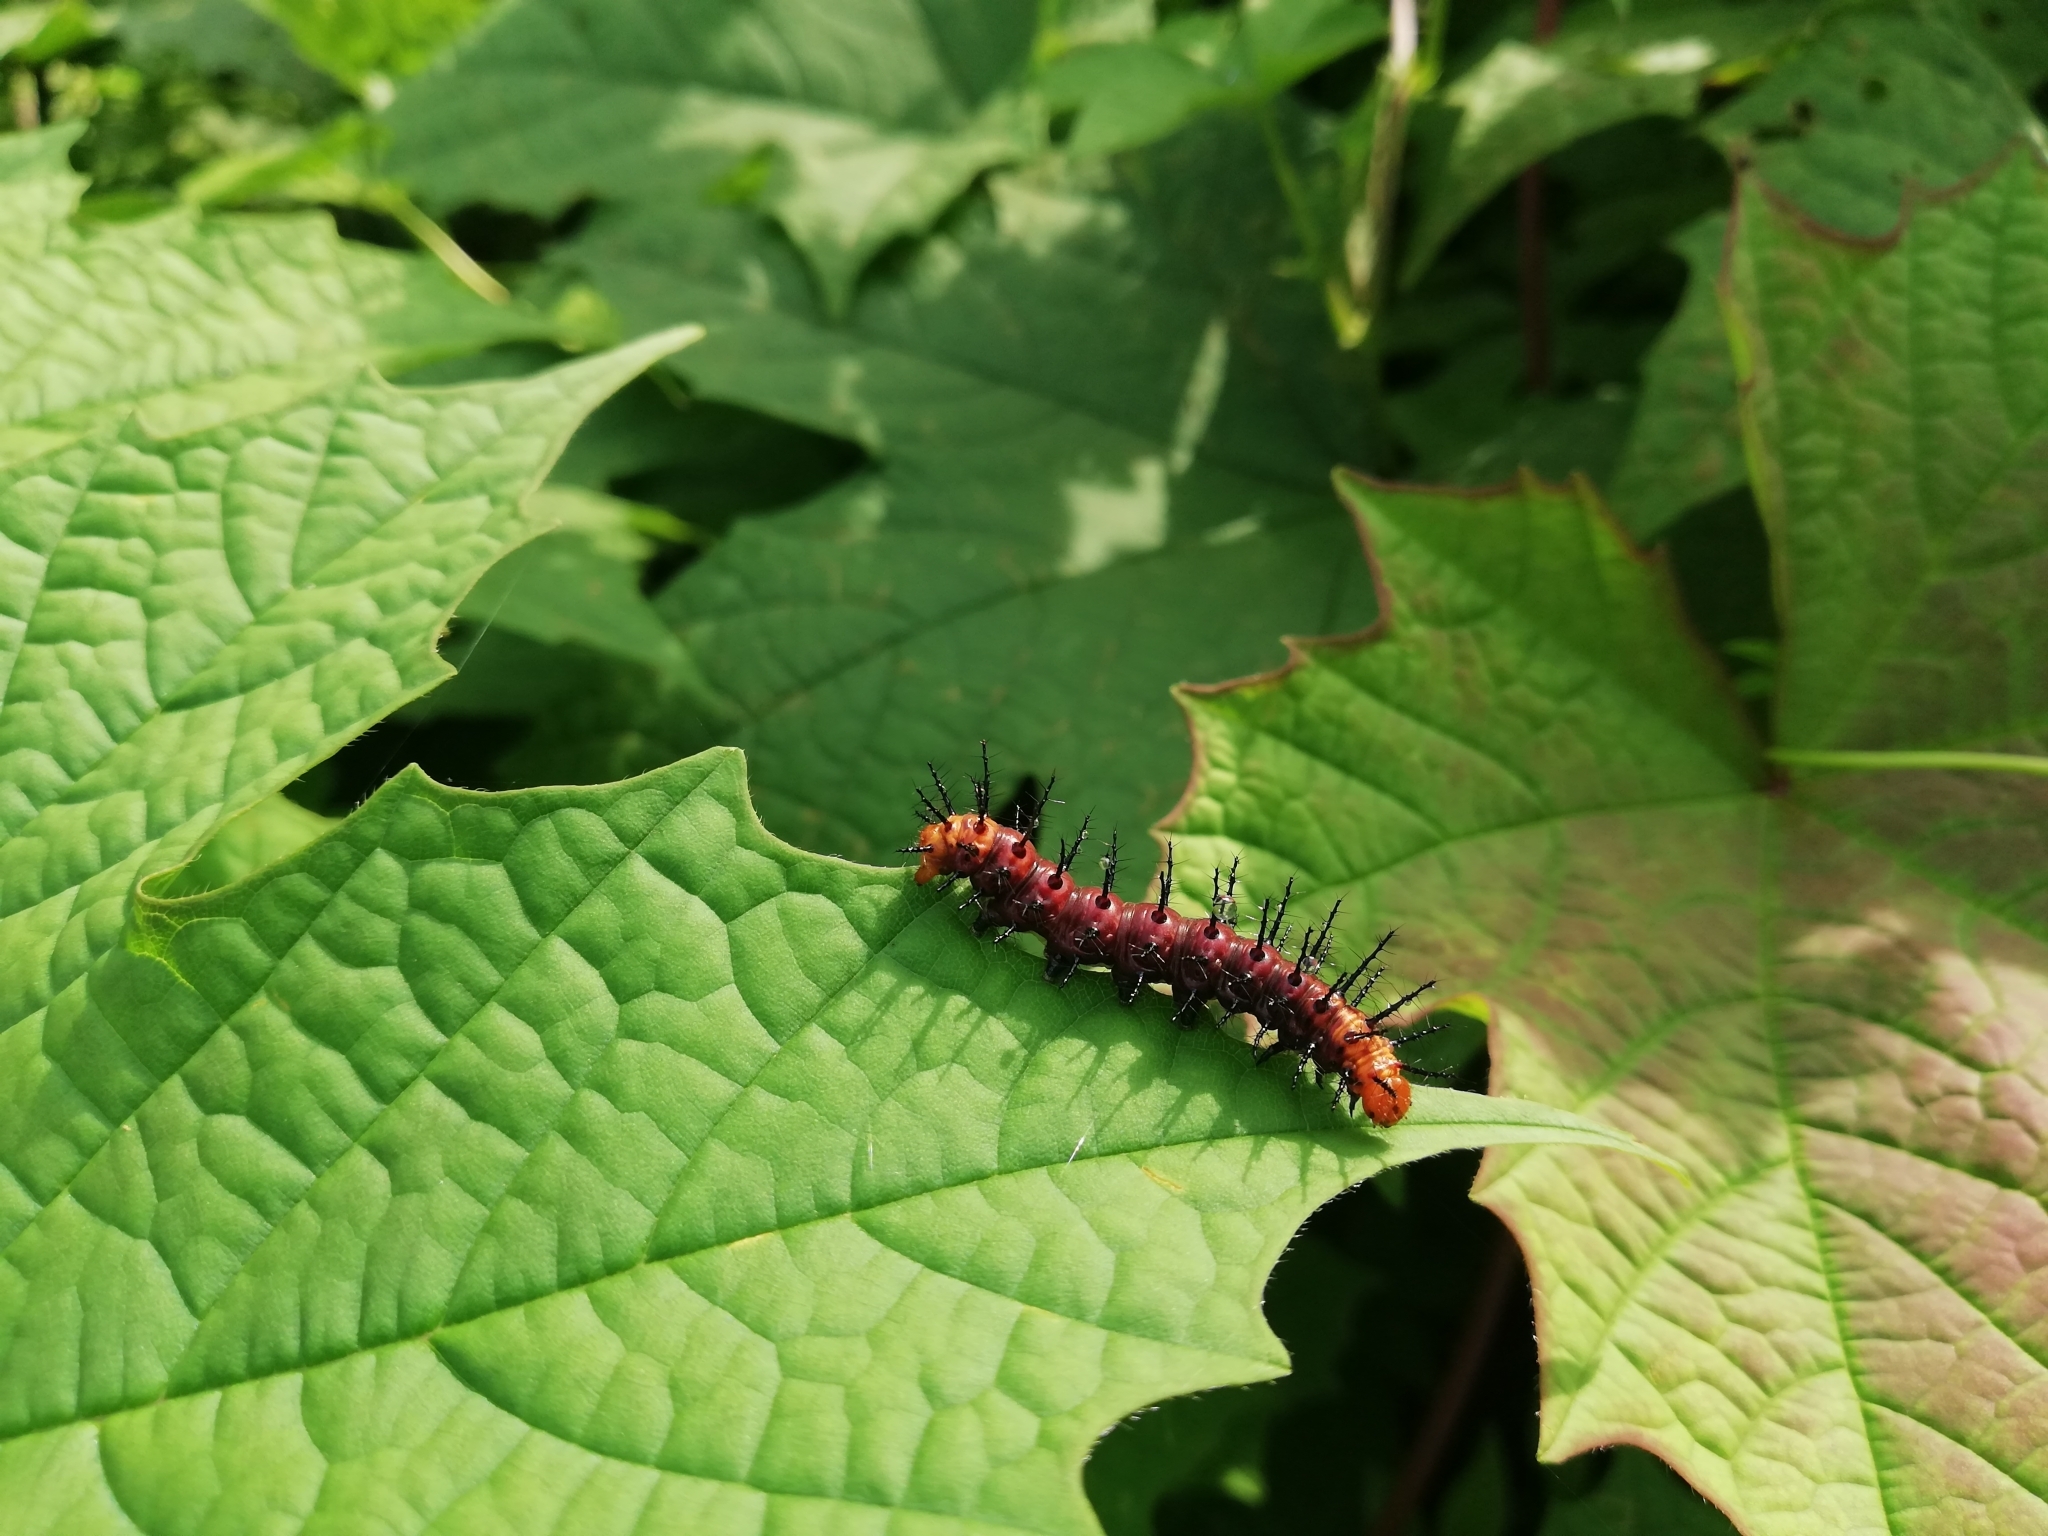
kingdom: Animalia
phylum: Arthropoda
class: Insecta
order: Lepidoptera
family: Nymphalidae
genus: Acraea
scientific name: Acraea terpsicore
